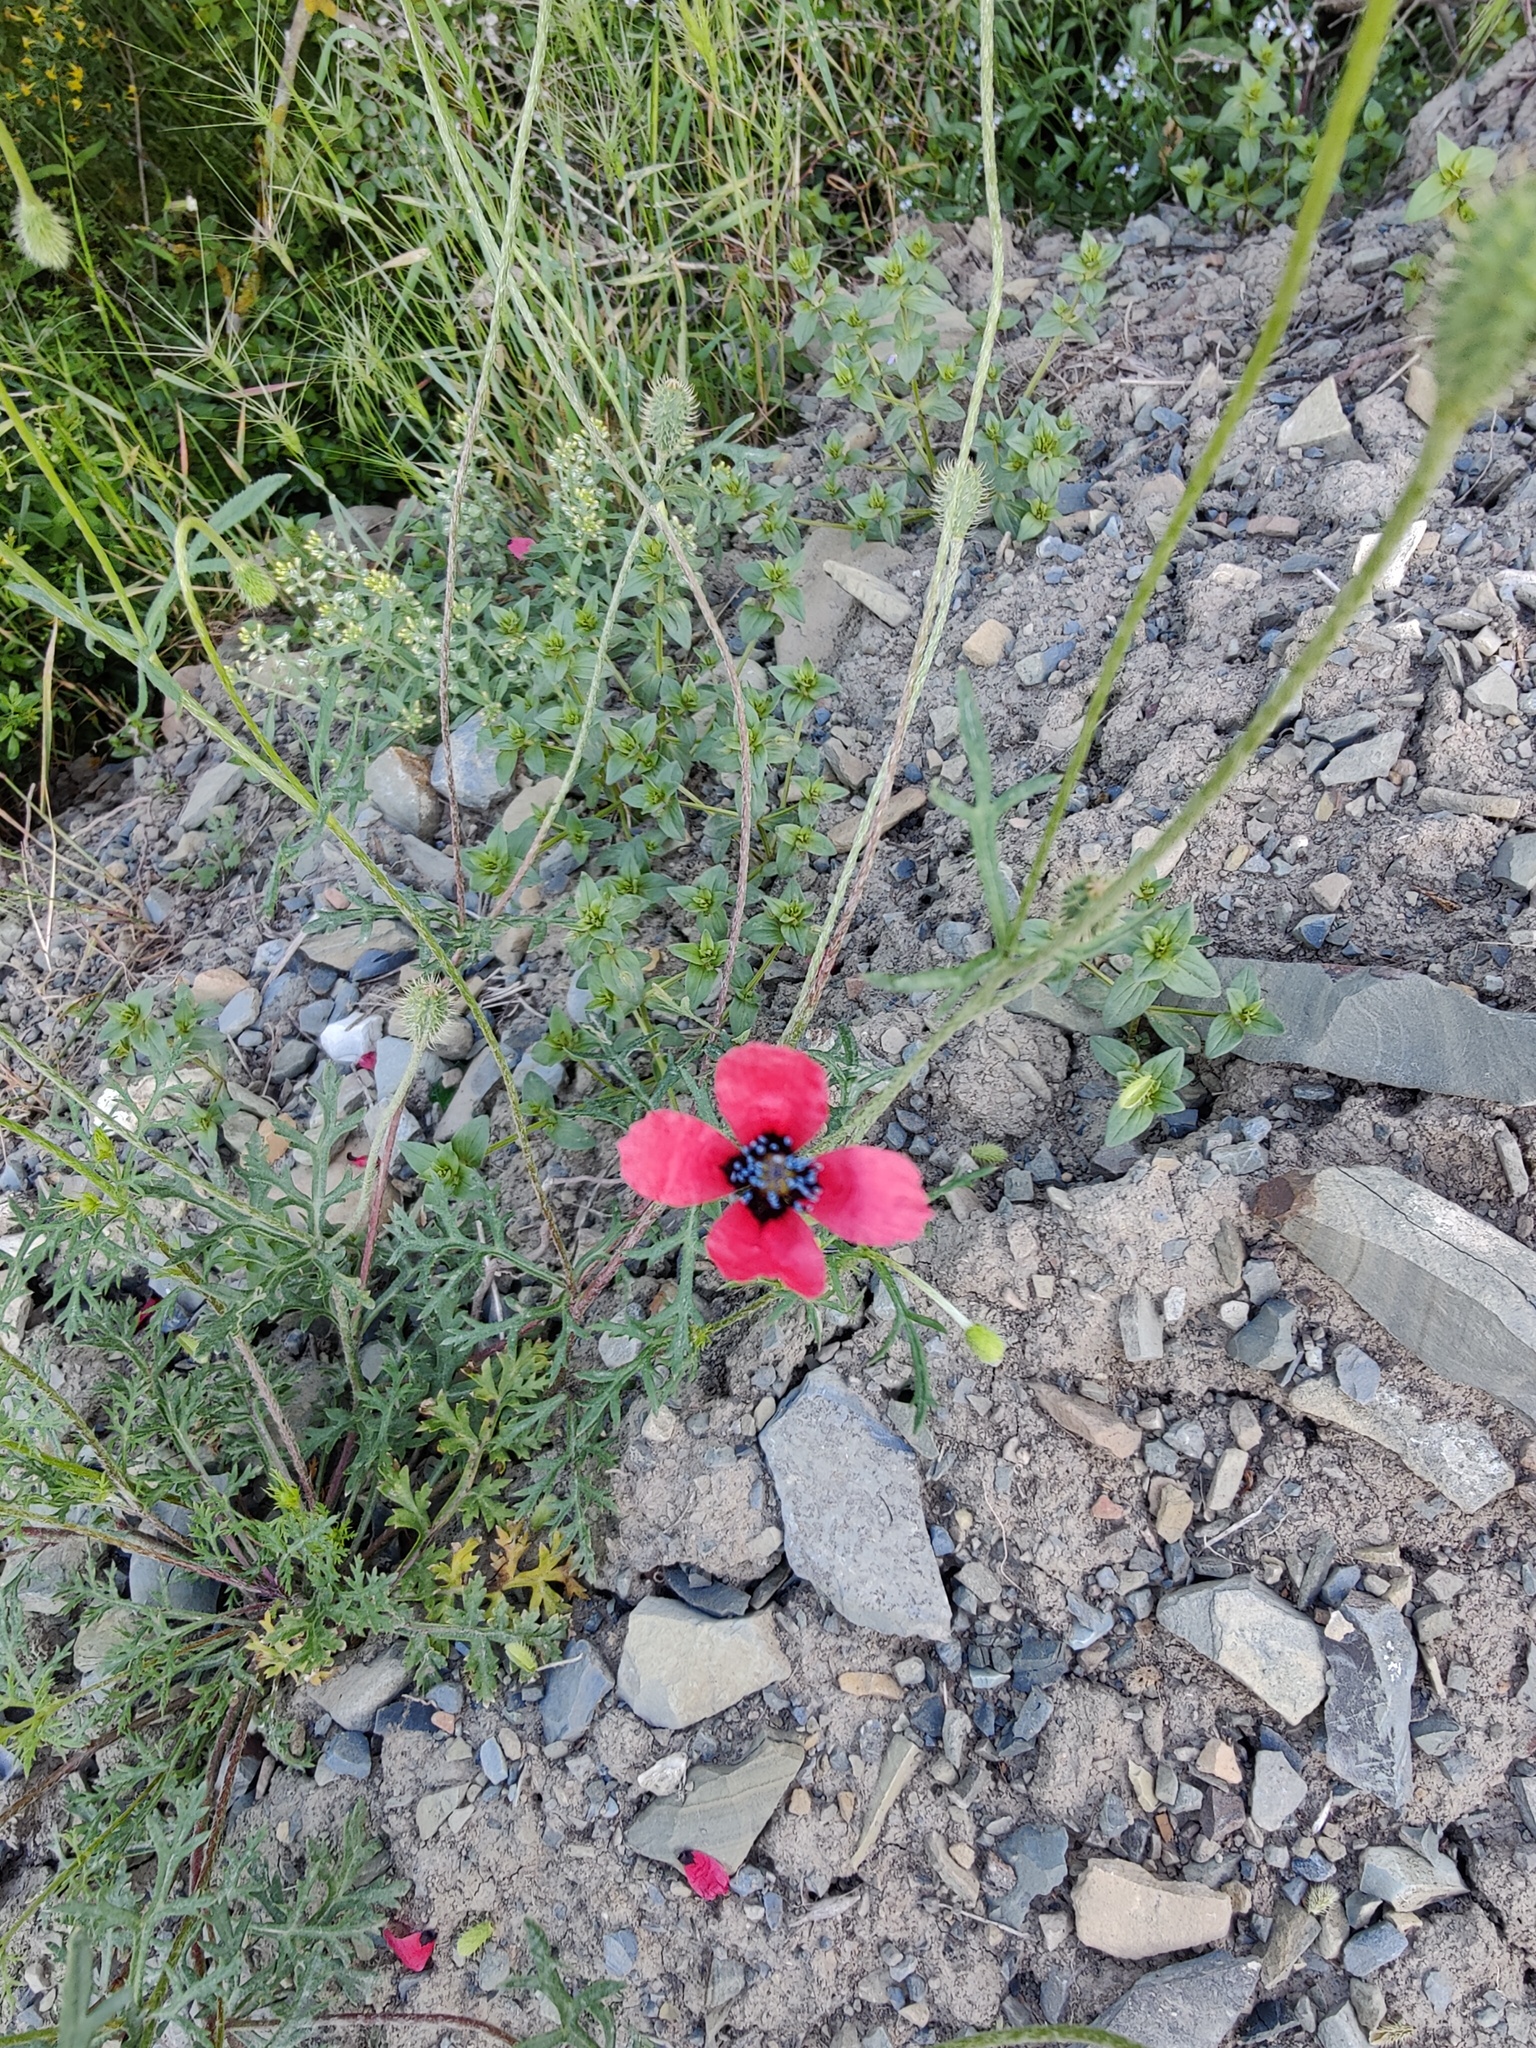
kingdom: Plantae
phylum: Tracheophyta
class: Magnoliopsida
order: Ranunculales
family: Papaveraceae
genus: Roemeria
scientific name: Roemeria hispida
